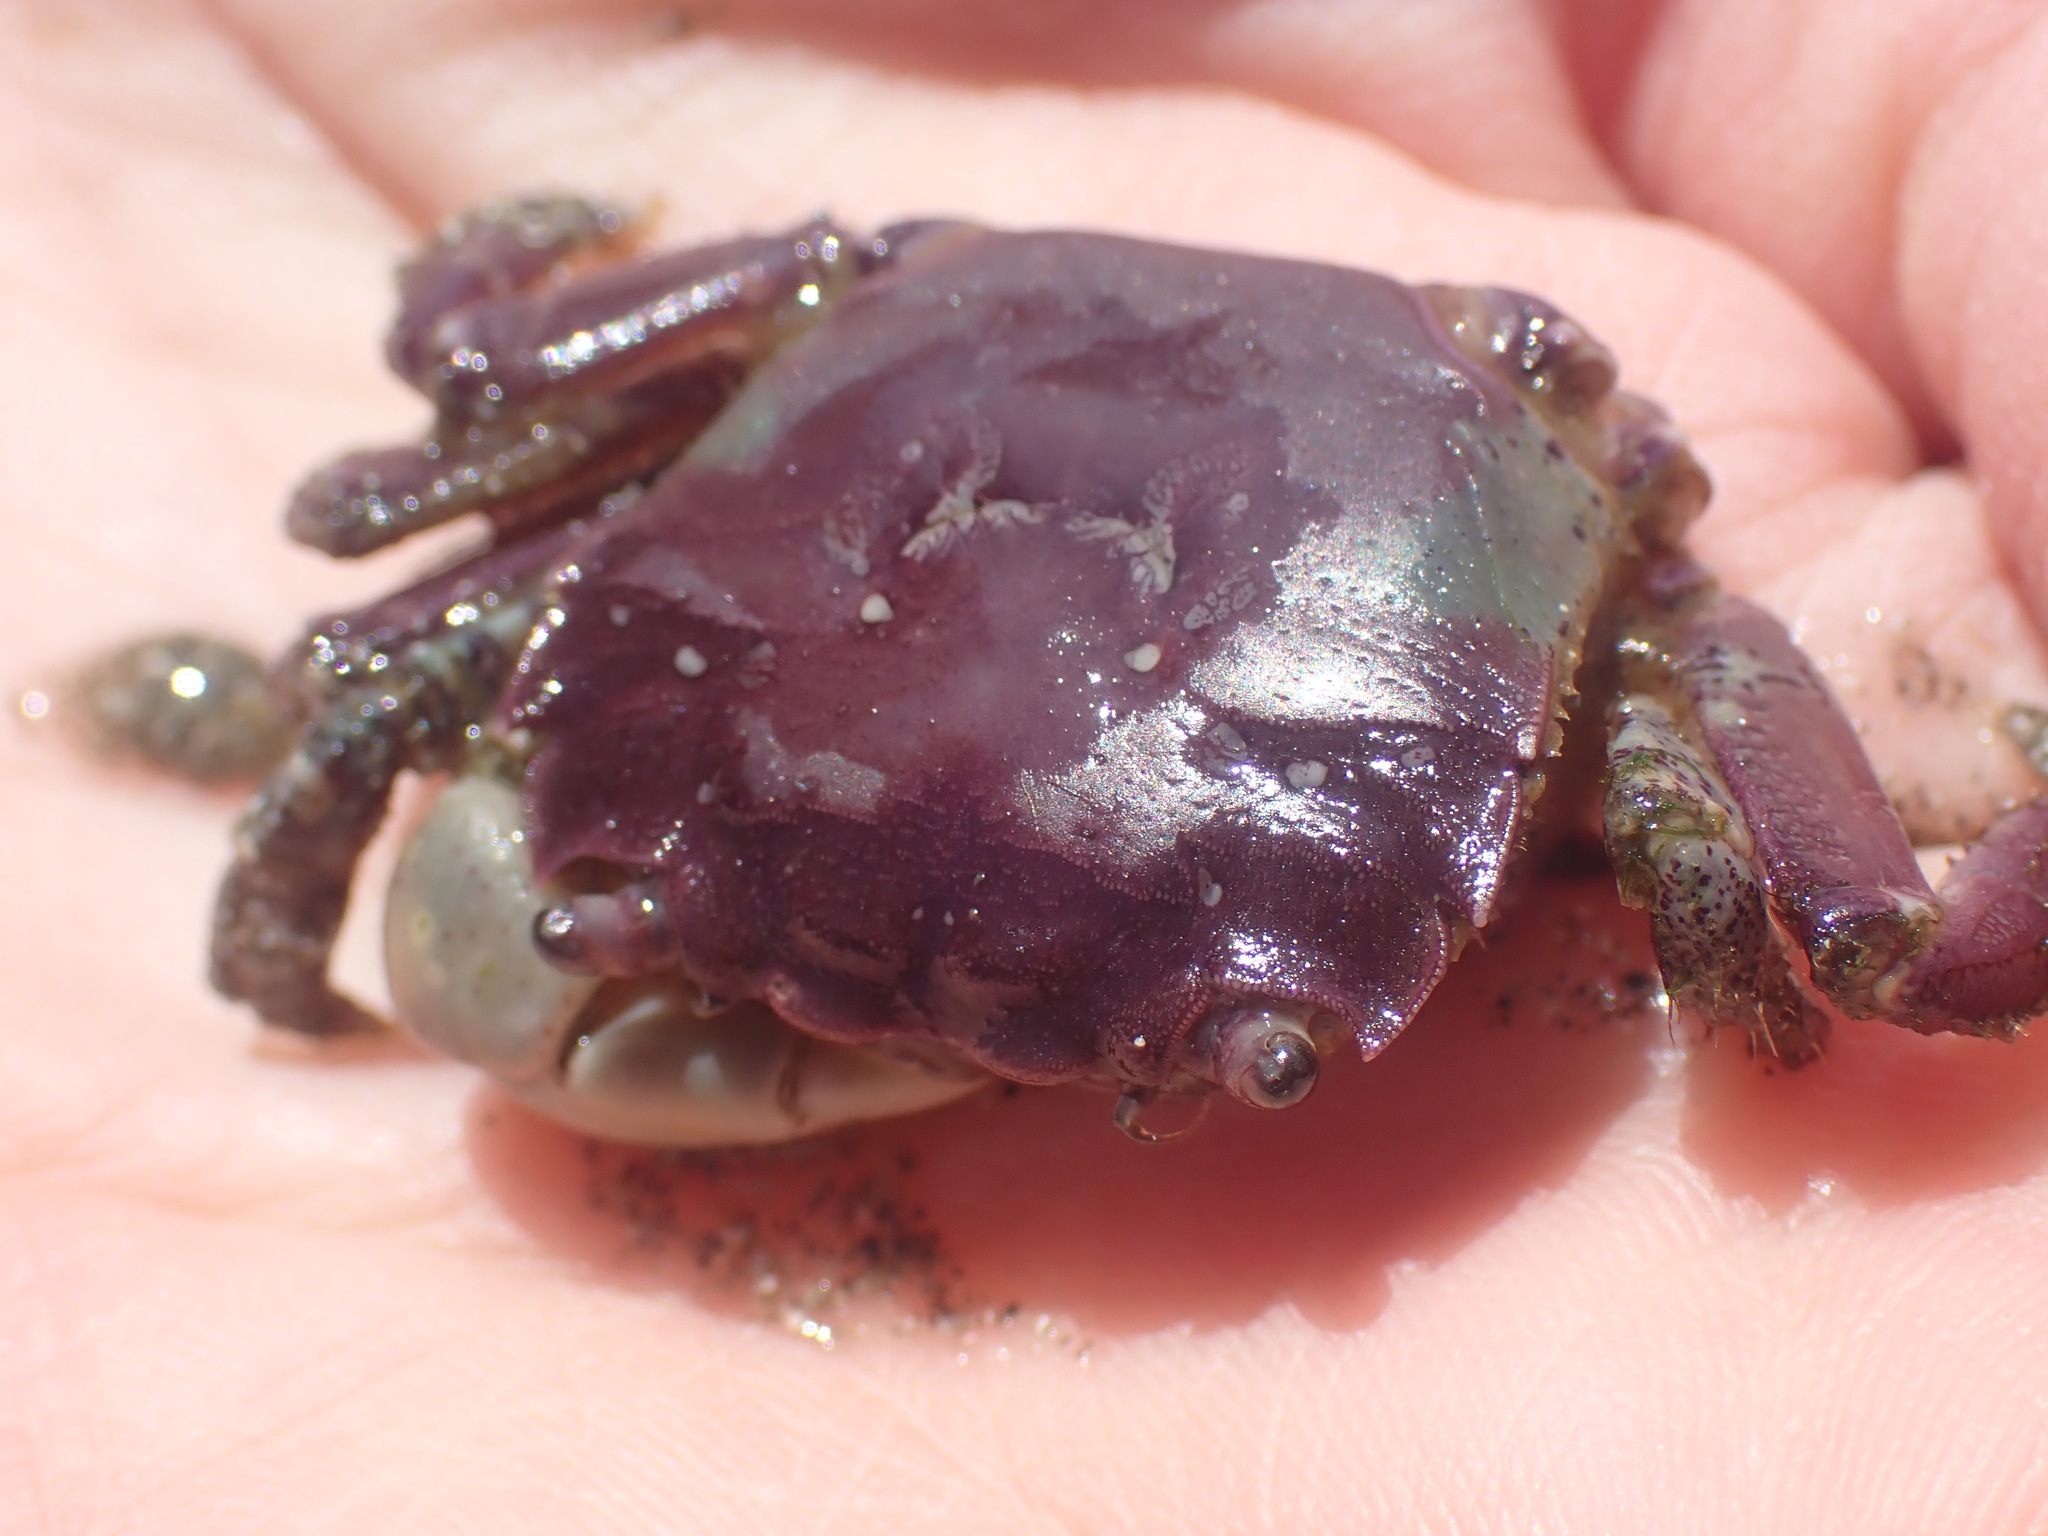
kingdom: Animalia
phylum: Arthropoda
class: Malacostraca
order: Decapoda
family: Varunidae
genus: Hemigrapsus
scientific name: Hemigrapsus oregonensis
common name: Yellow shore crab
